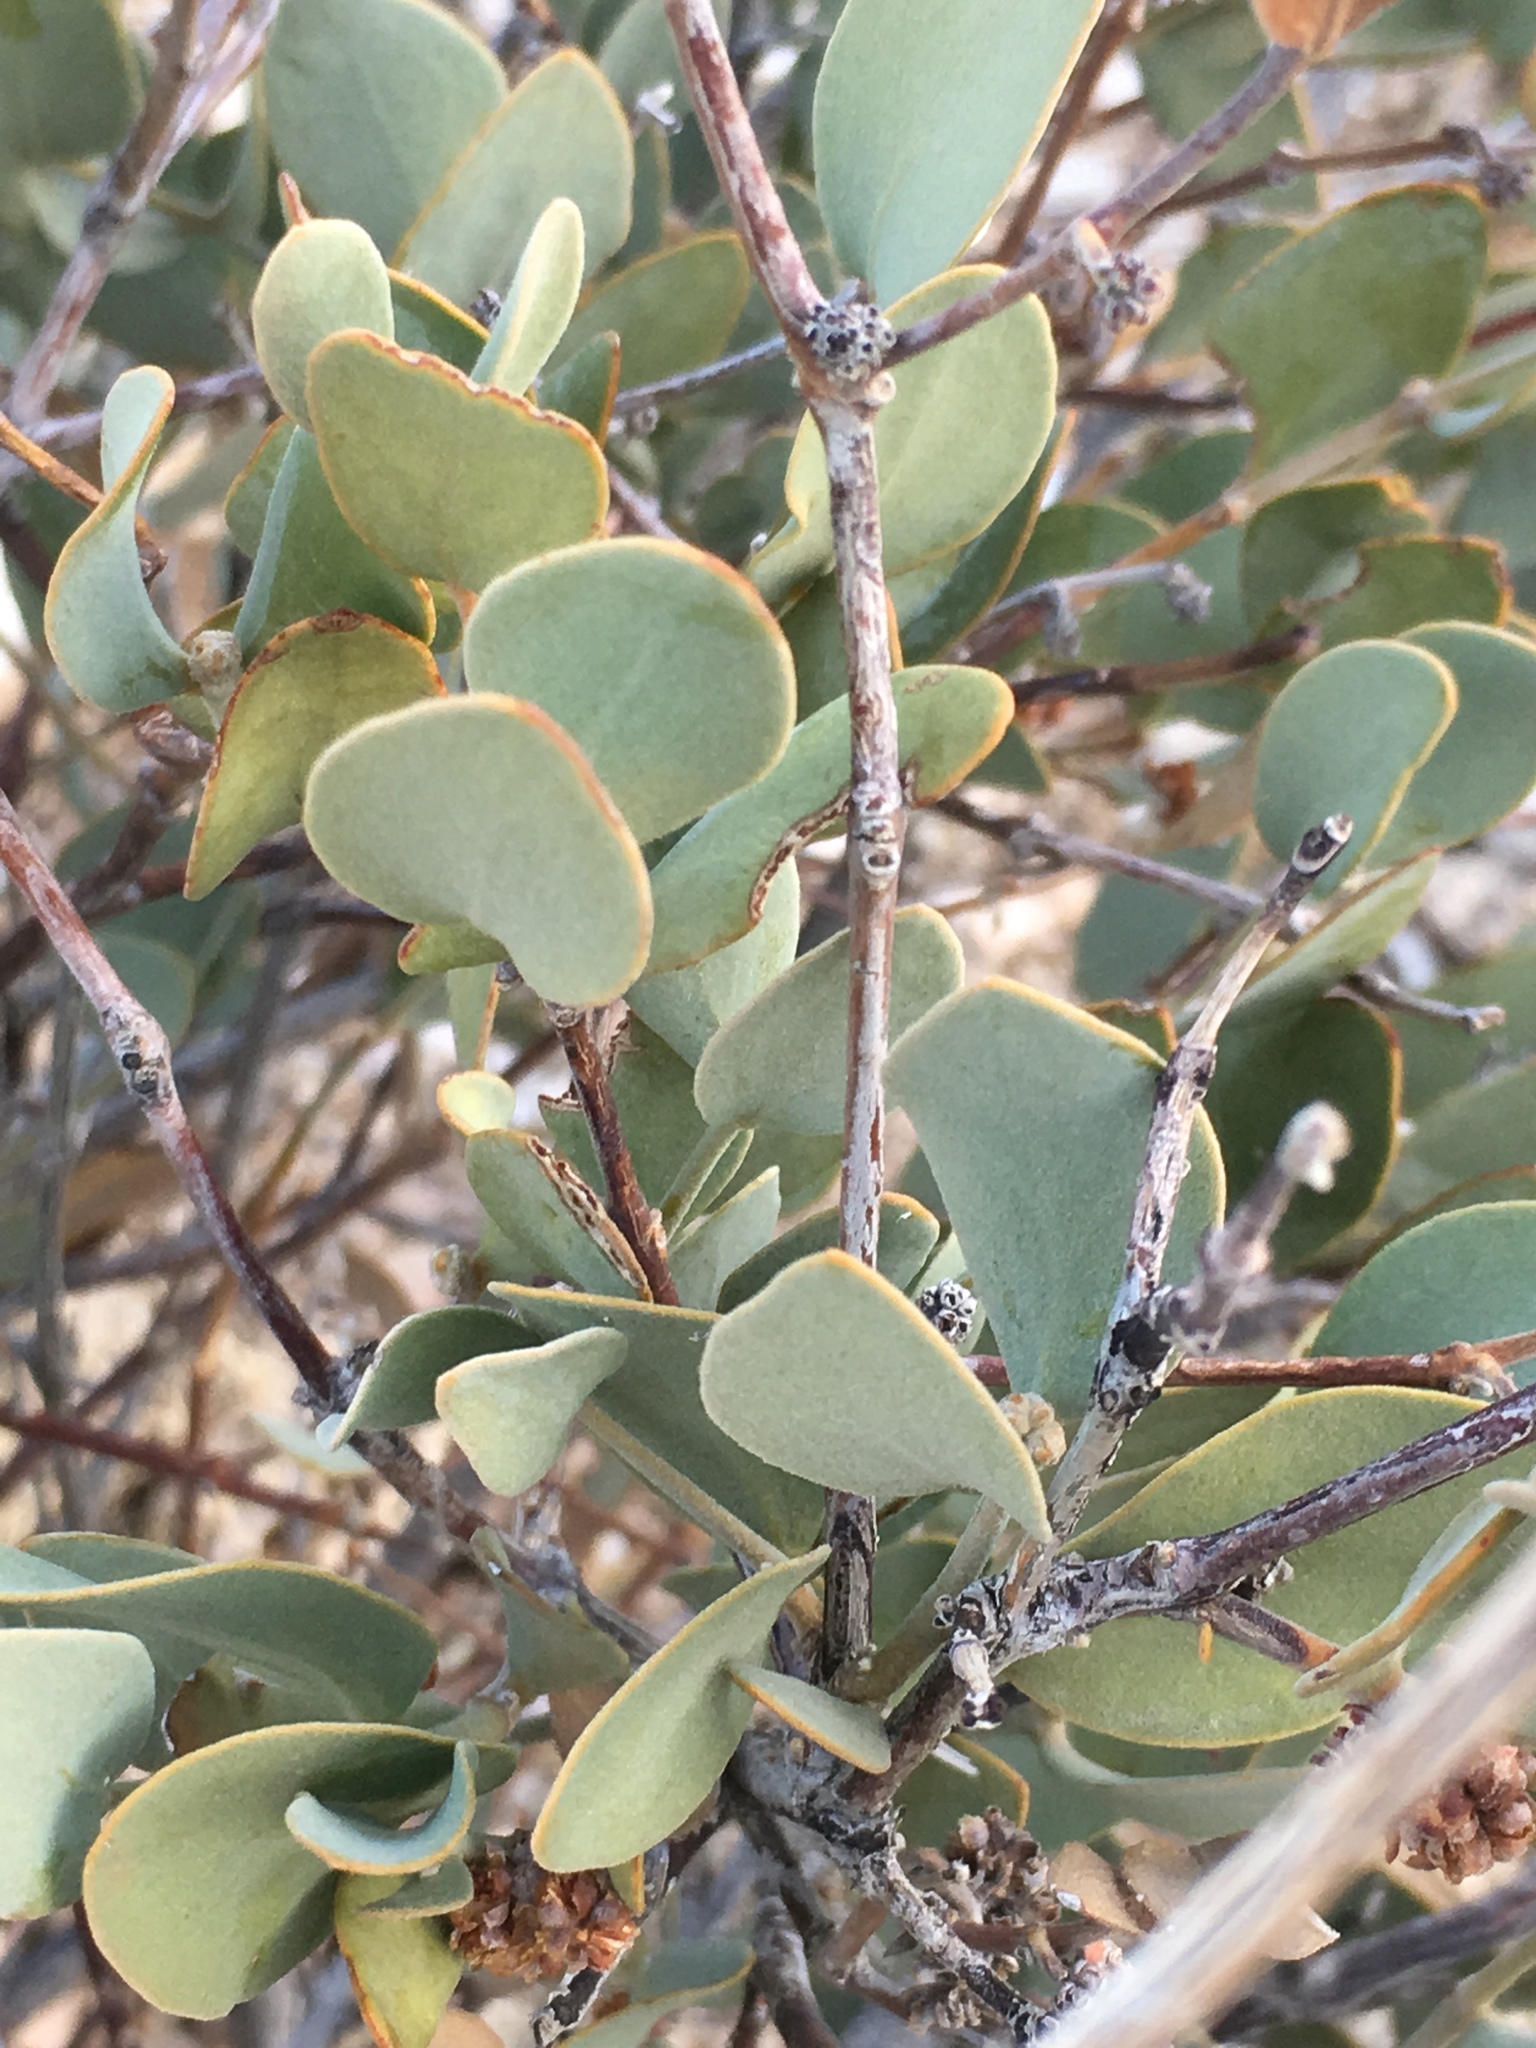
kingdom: Plantae
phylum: Tracheophyta
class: Magnoliopsida
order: Caryophyllales
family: Simmondsiaceae
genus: Simmondsia
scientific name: Simmondsia chinensis
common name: Jojoba
